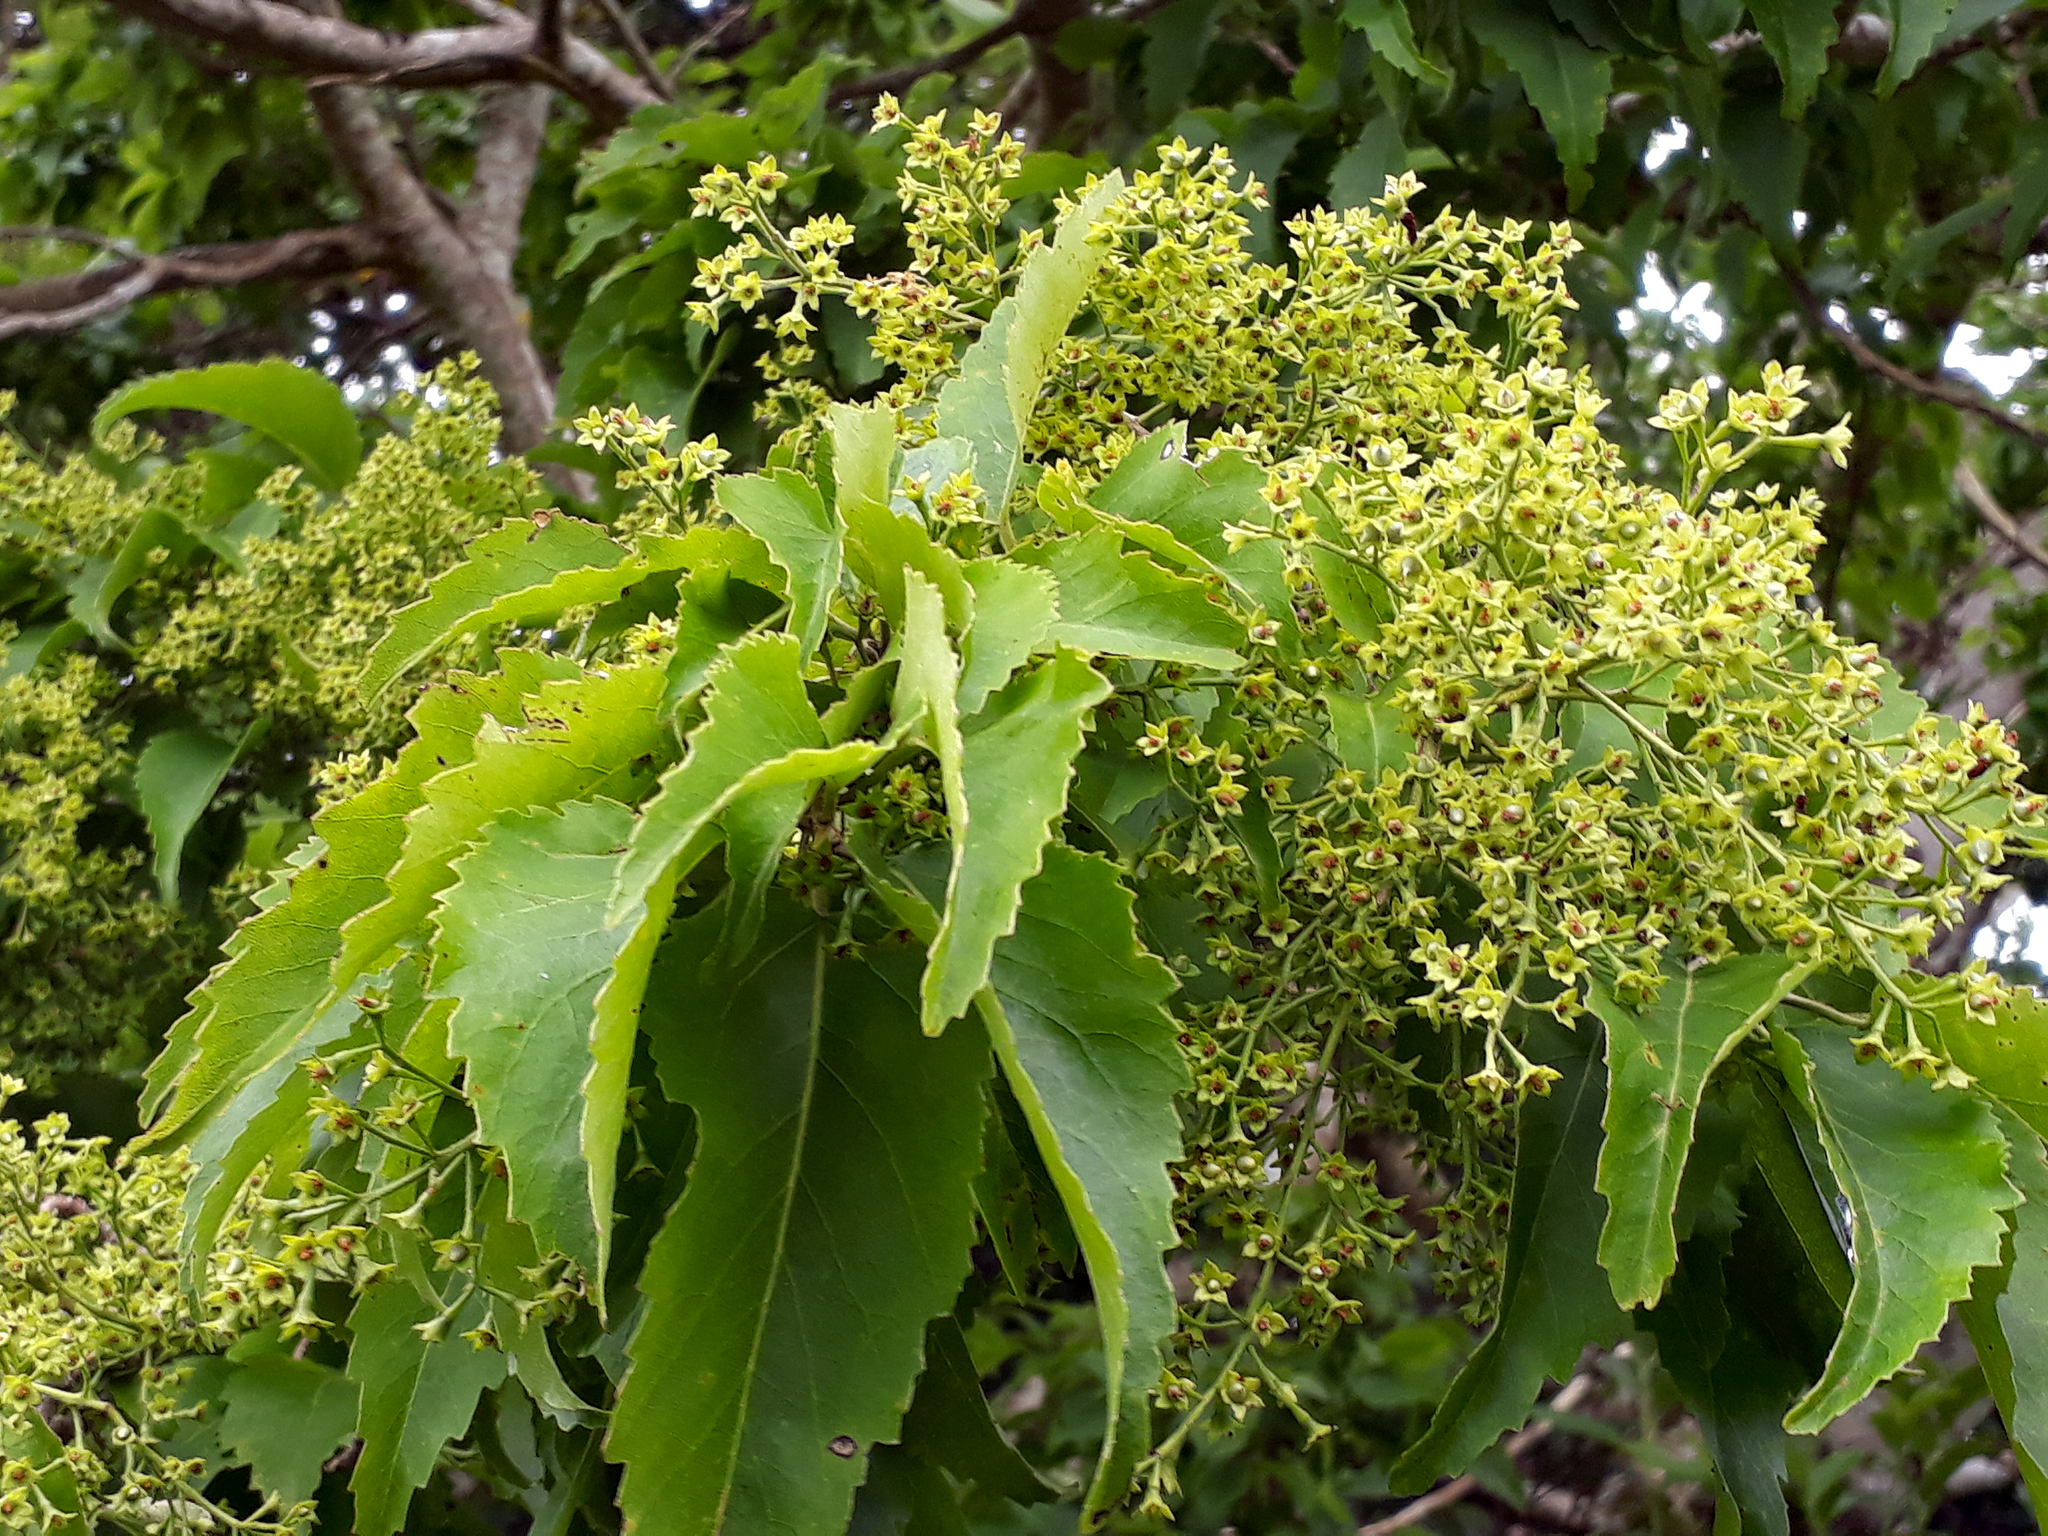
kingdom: Plantae
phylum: Tracheophyta
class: Magnoliopsida
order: Malvales
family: Malvaceae
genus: Plagianthus
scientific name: Plagianthus regius
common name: Manatu
